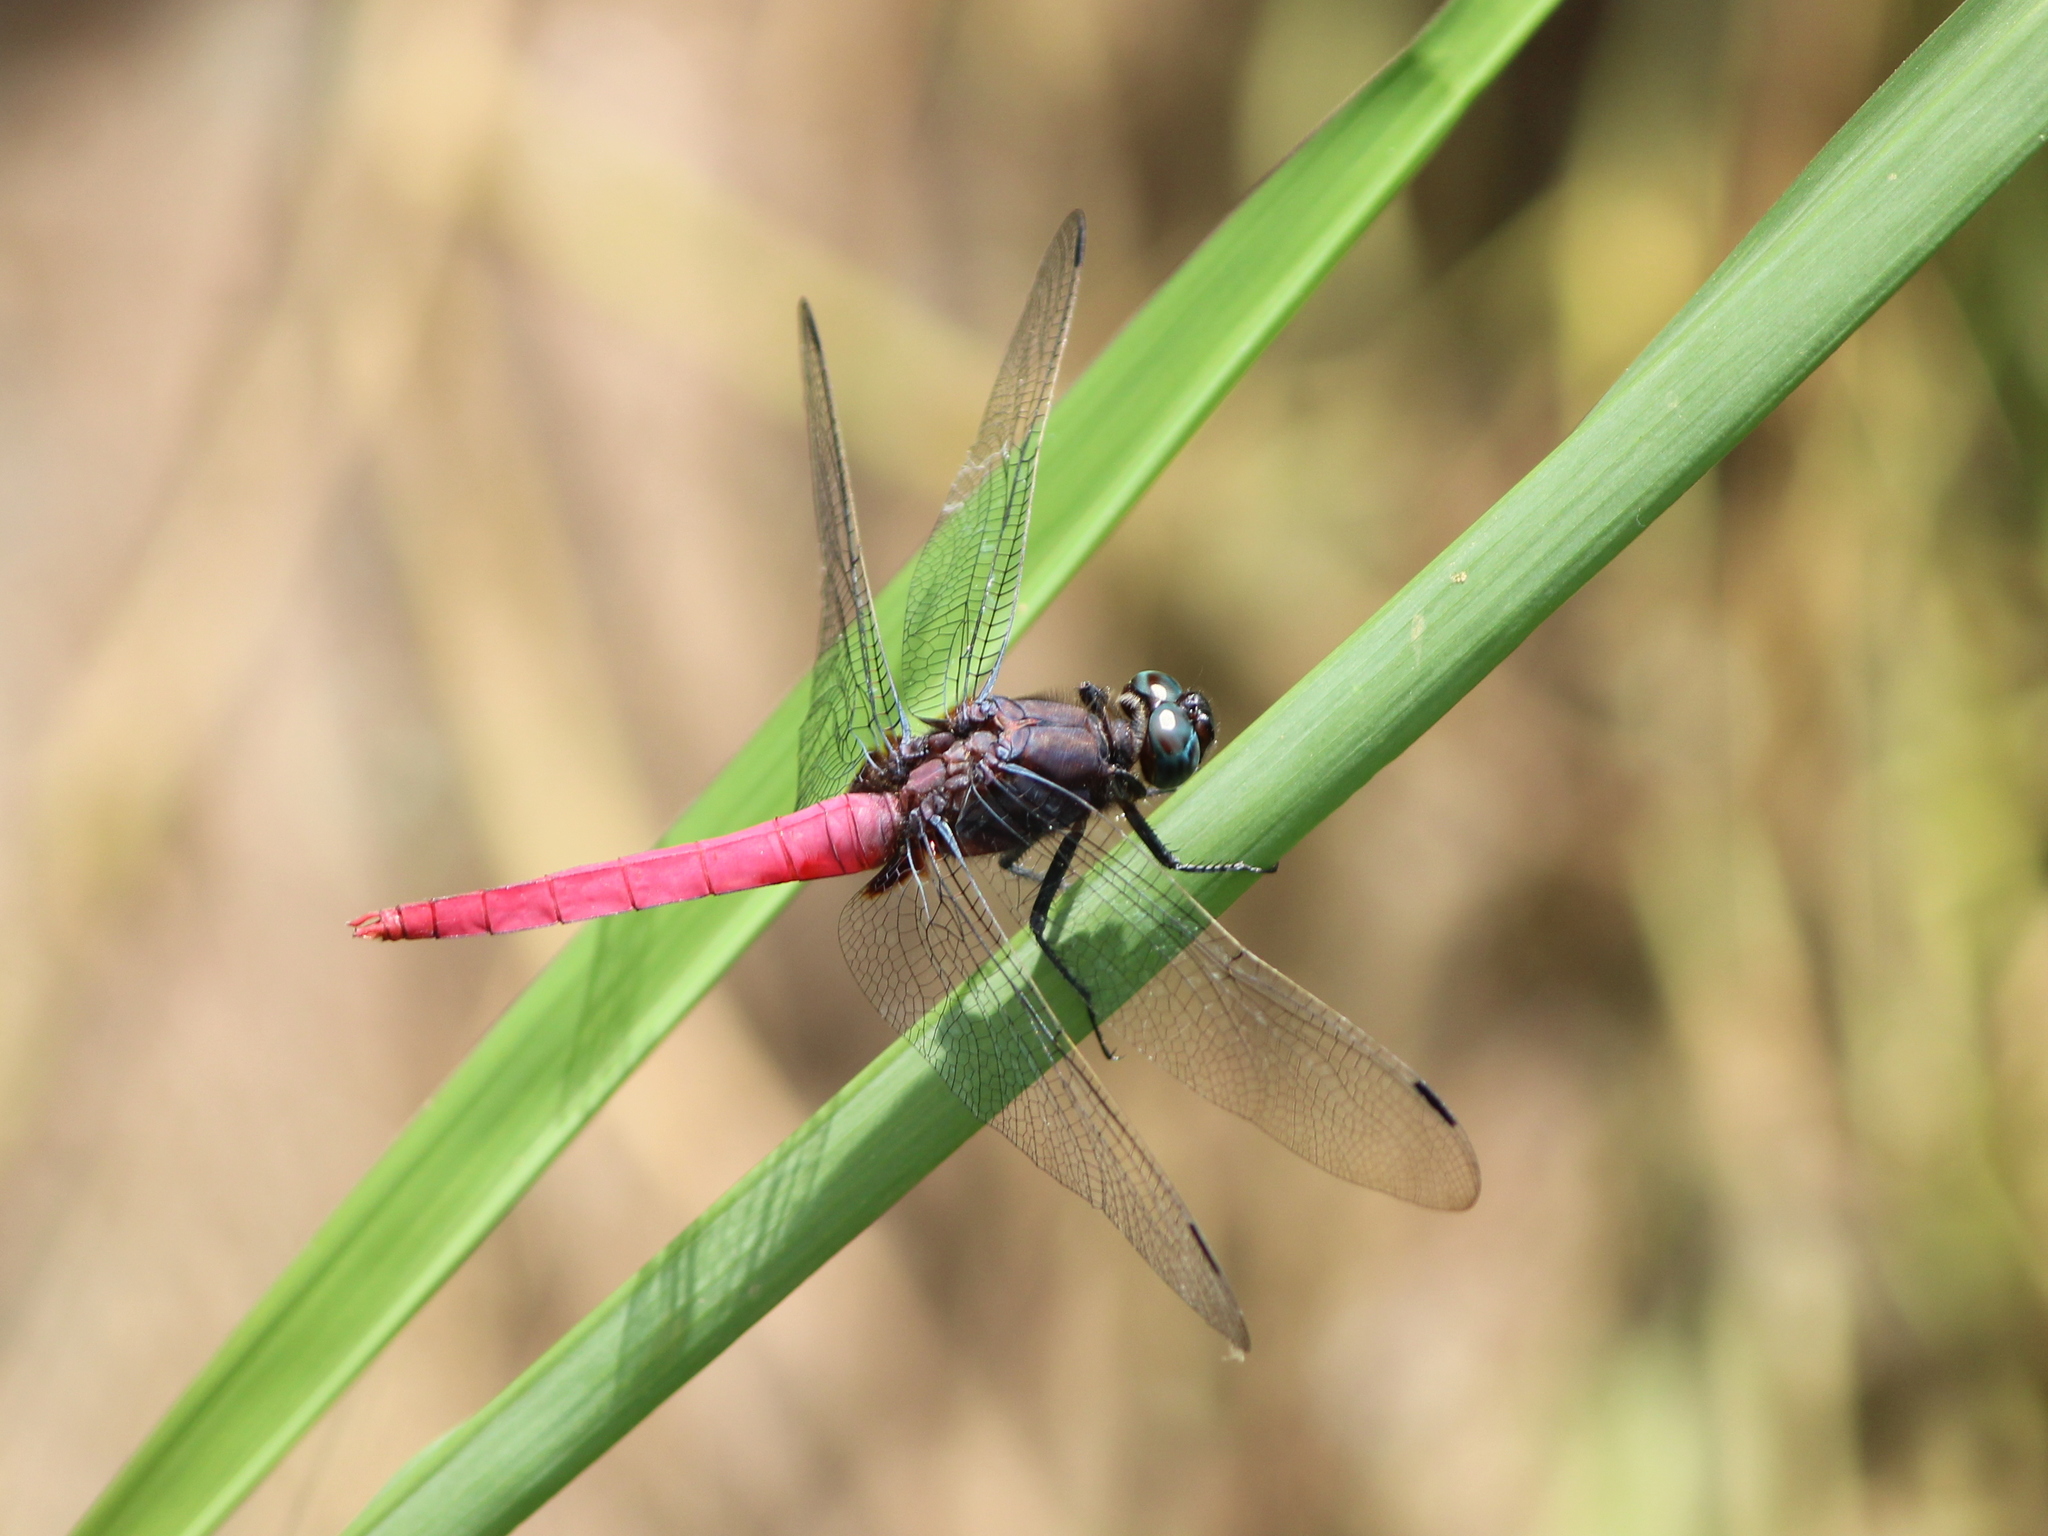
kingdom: Animalia
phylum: Arthropoda
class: Insecta
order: Odonata
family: Libellulidae
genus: Orthetrum
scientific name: Orthetrum pruinosum
